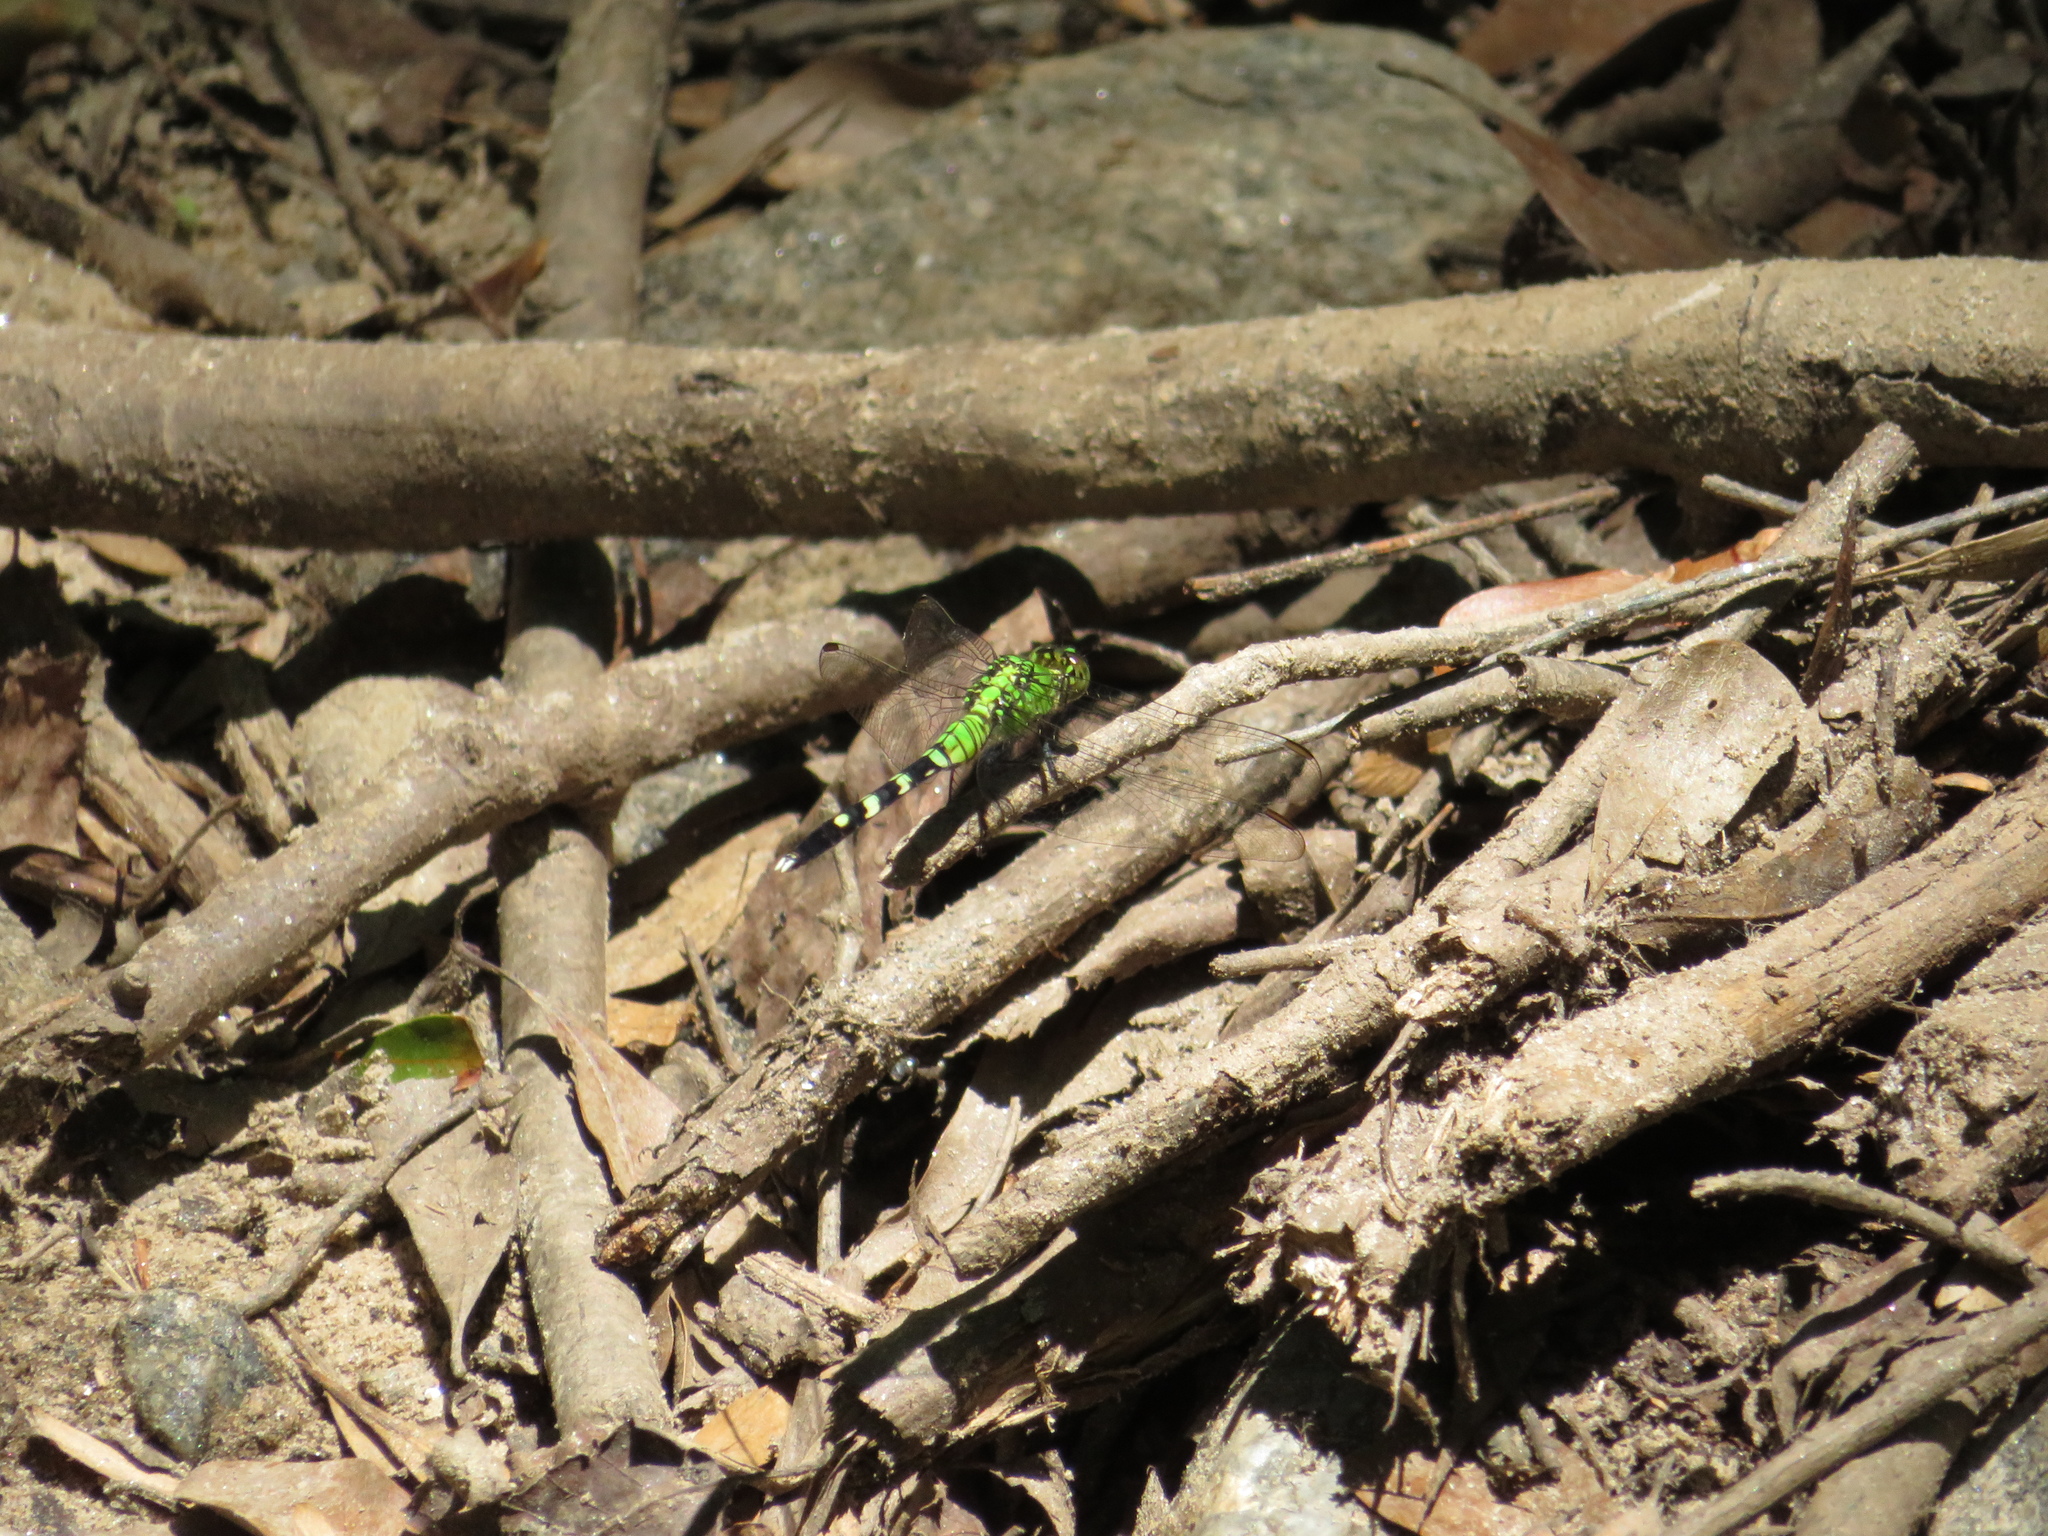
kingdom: Animalia
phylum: Arthropoda
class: Insecta
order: Odonata
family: Libellulidae
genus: Erythemis
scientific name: Erythemis simplicicollis
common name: Eastern pondhawk
